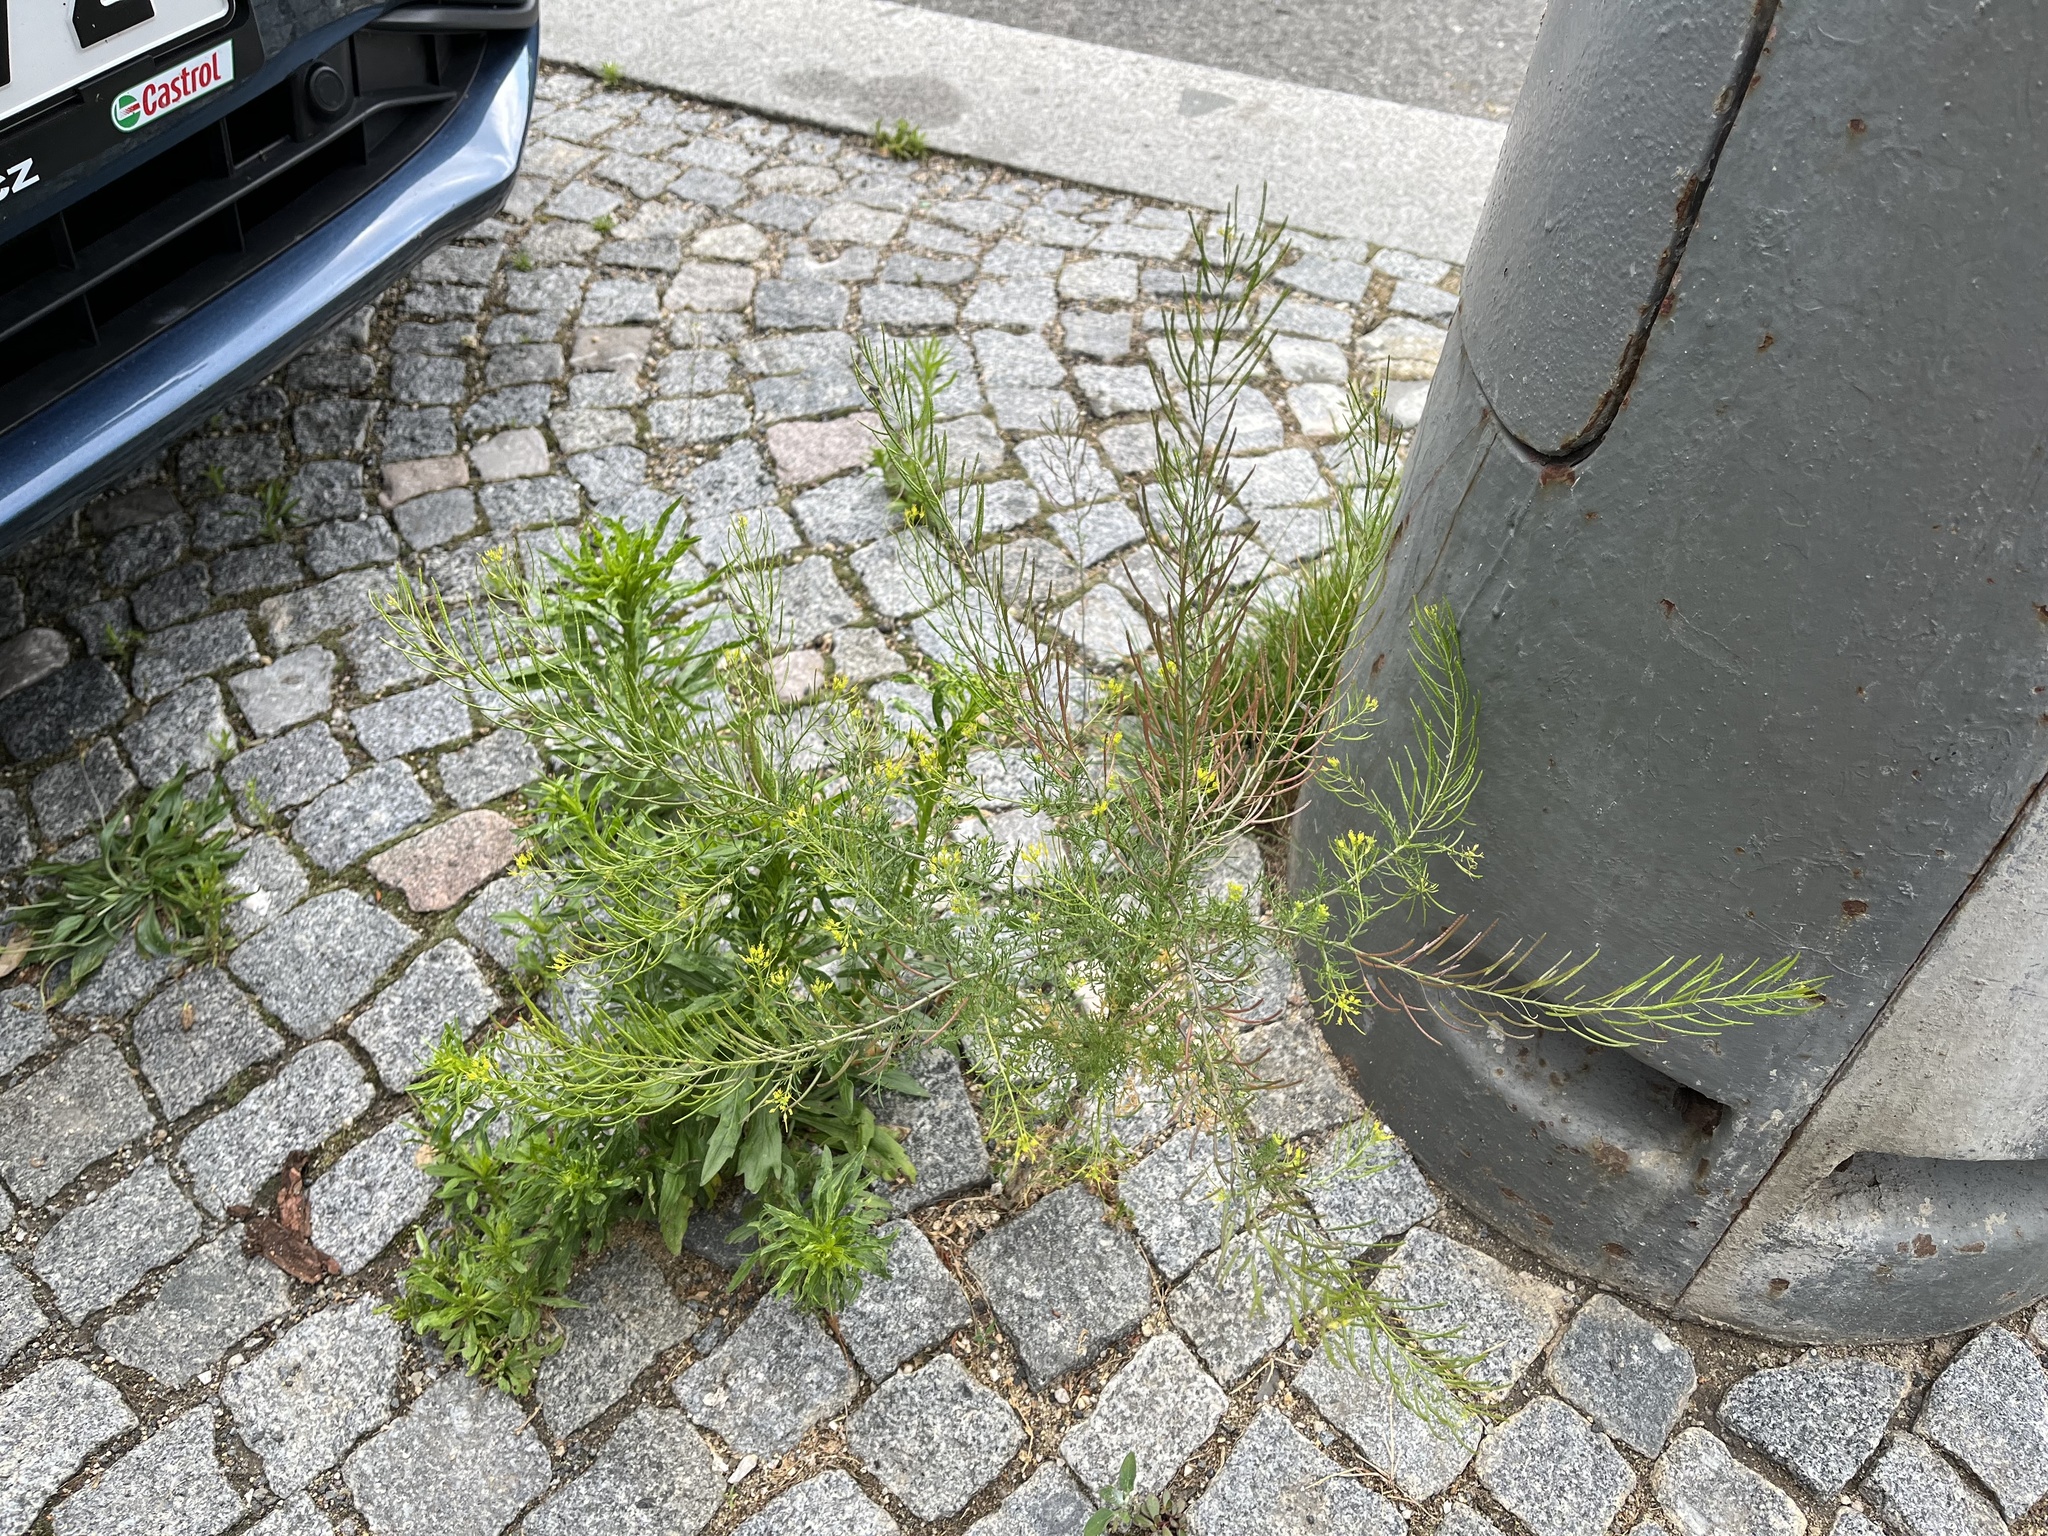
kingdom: Plantae
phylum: Tracheophyta
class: Magnoliopsida
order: Brassicales
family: Brassicaceae
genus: Descurainia
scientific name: Descurainia sophia
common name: Flixweed
